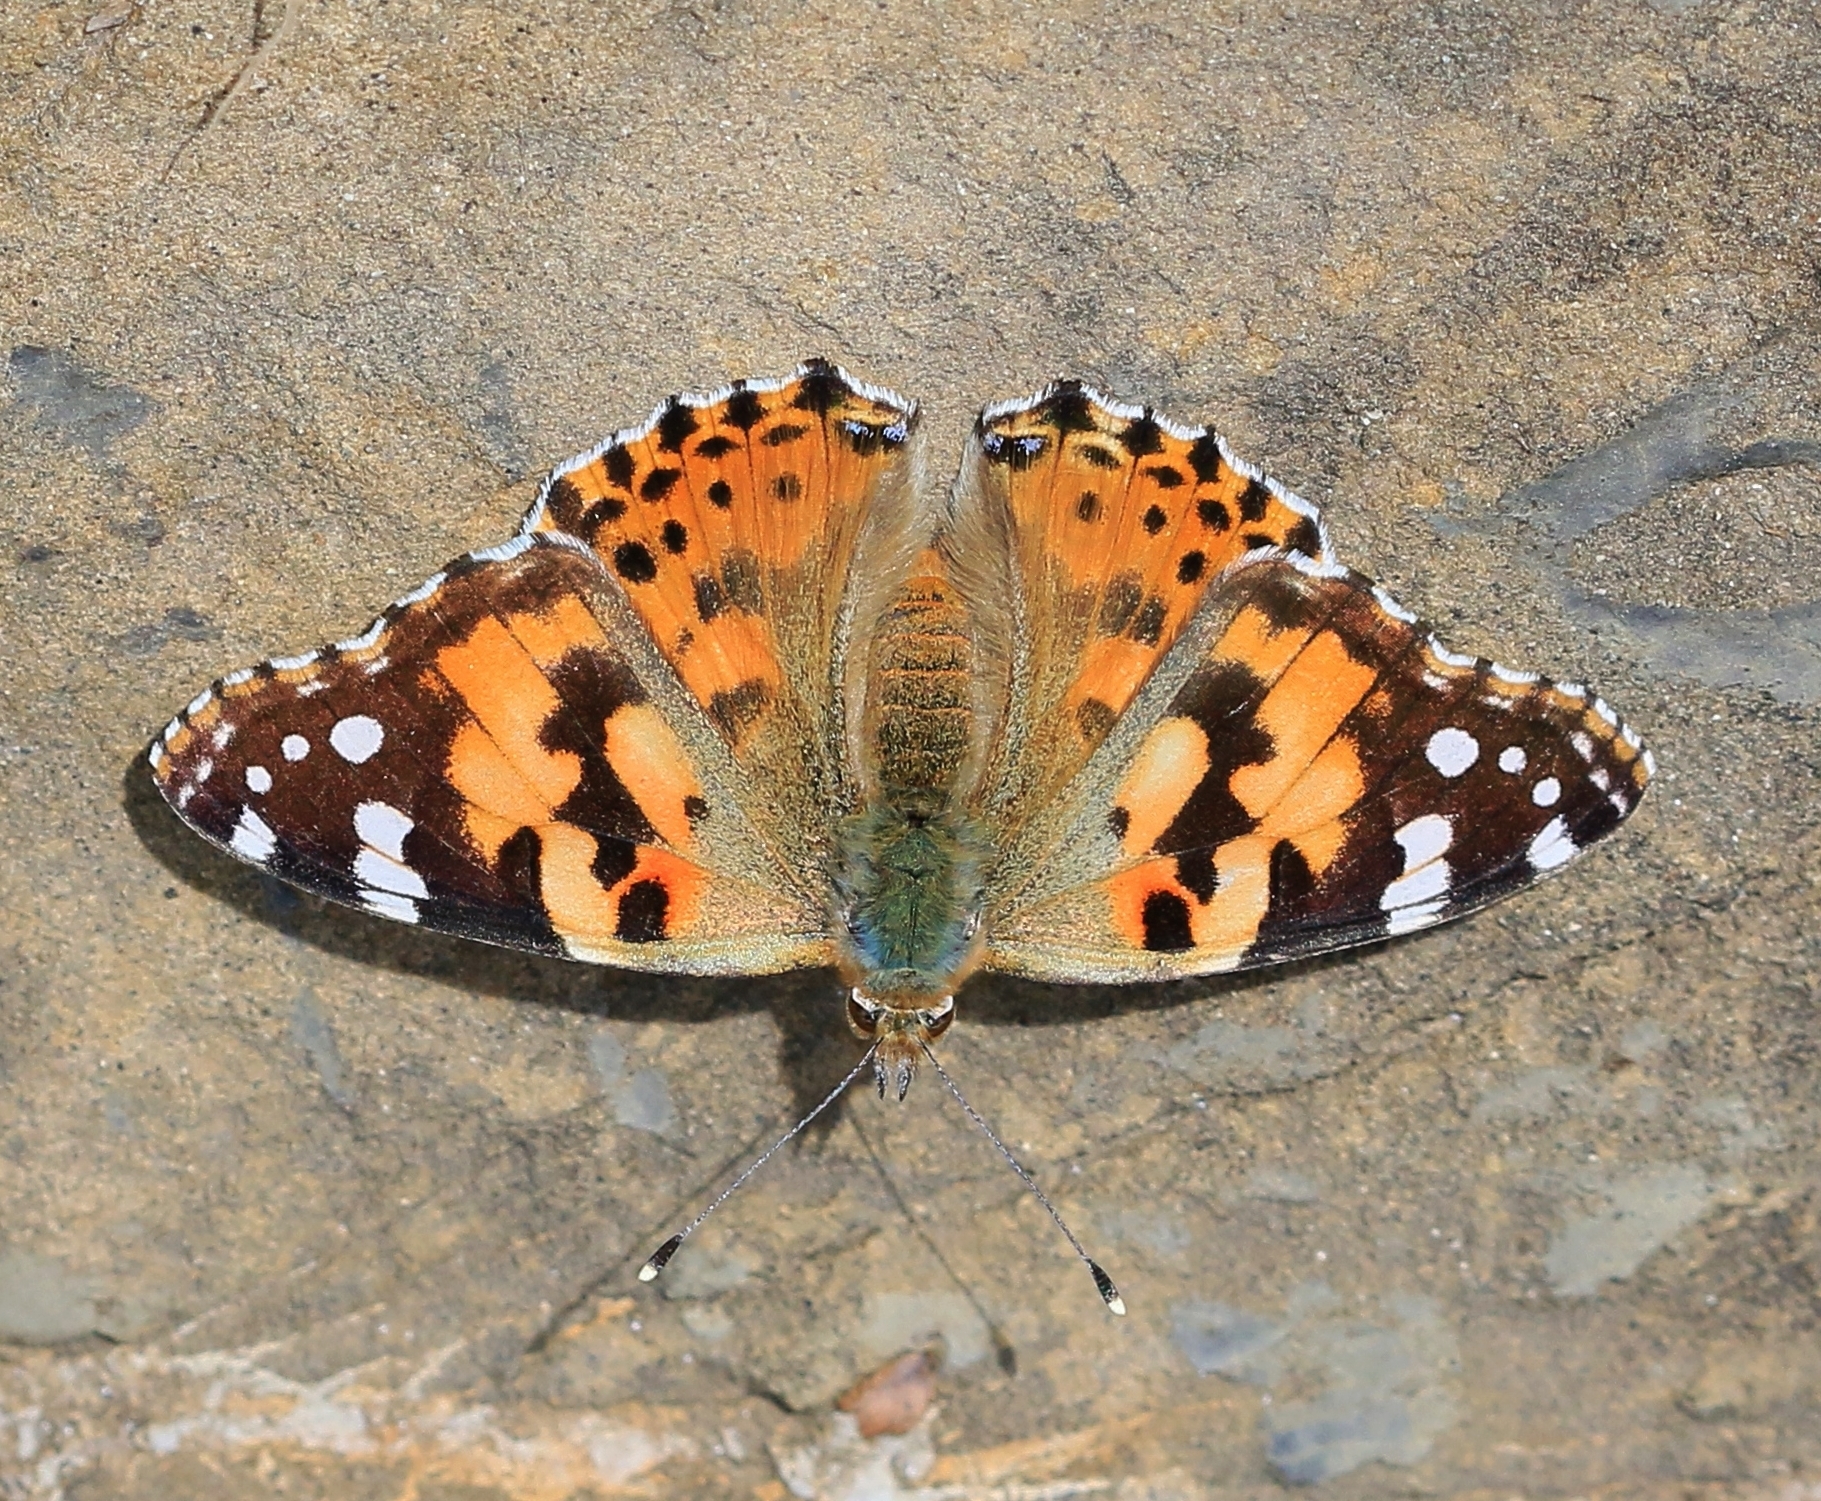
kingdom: Animalia
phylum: Arthropoda
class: Insecta
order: Lepidoptera
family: Nymphalidae
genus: Vanessa
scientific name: Vanessa cardui
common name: Painted lady
